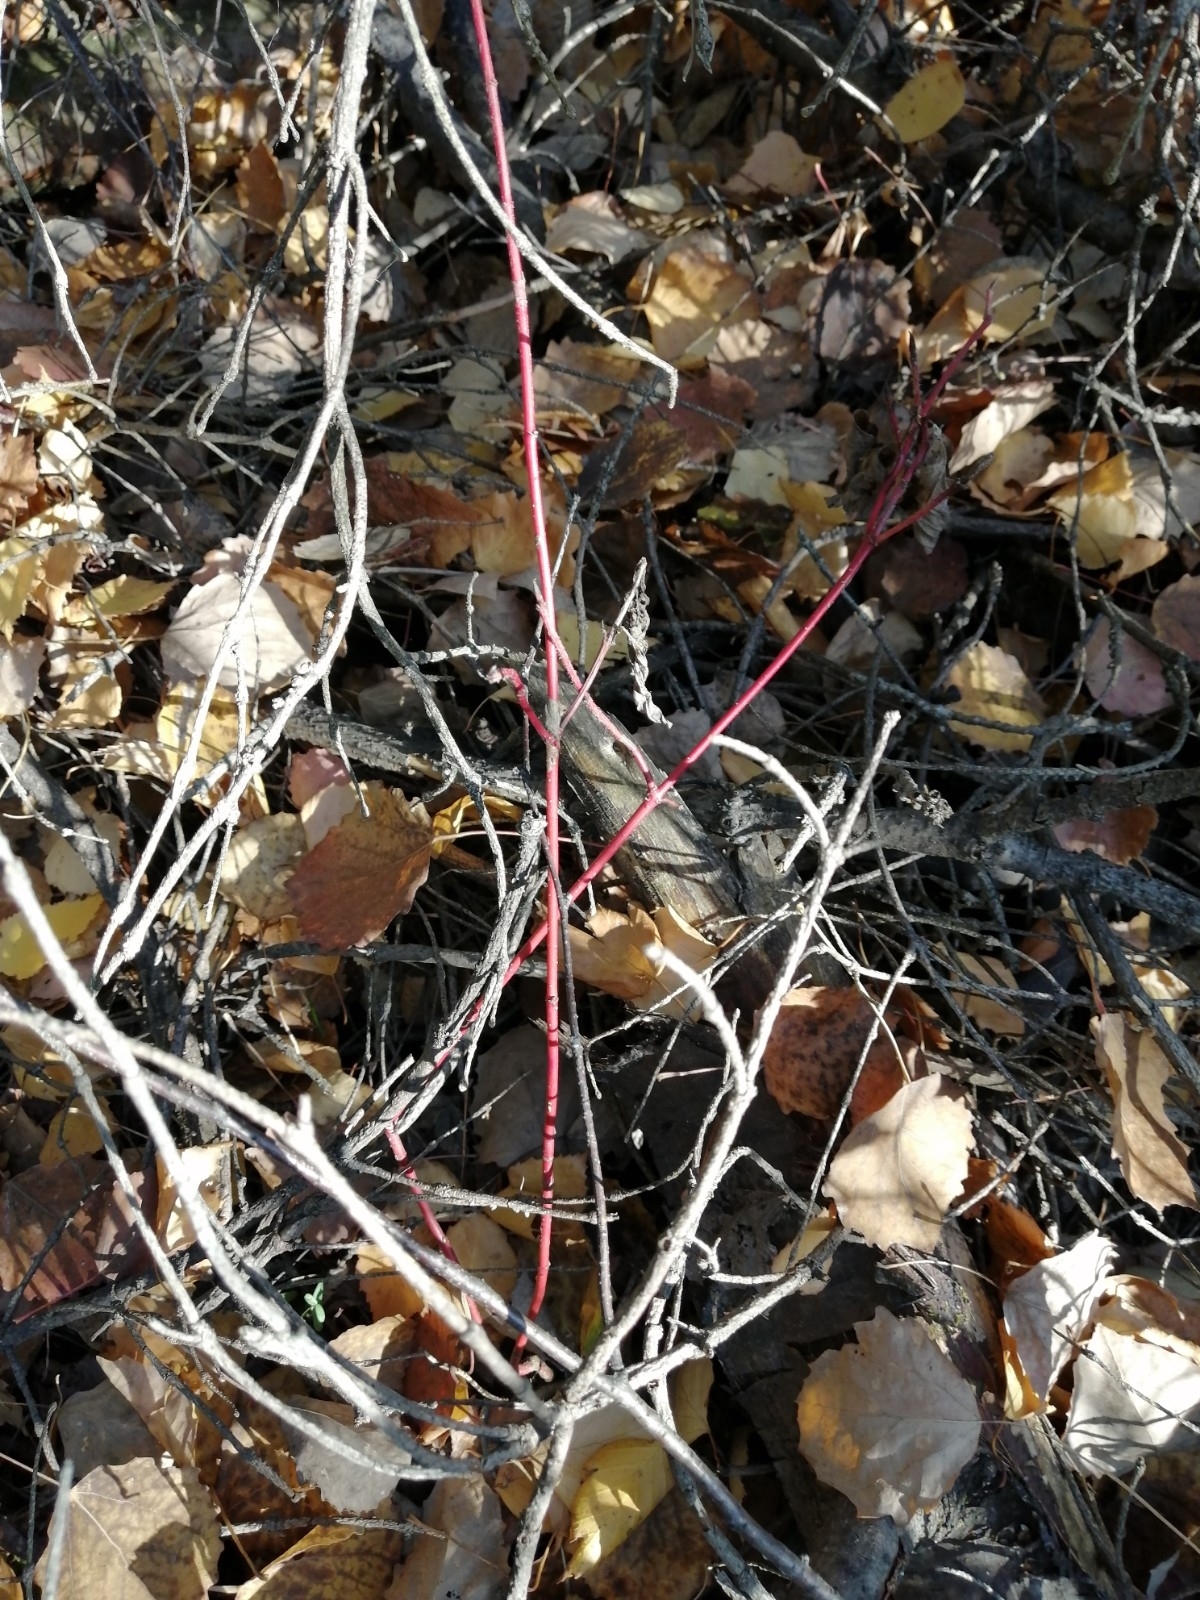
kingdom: Plantae
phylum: Tracheophyta
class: Magnoliopsida
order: Cornales
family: Cornaceae
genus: Cornus
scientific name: Cornus alba
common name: White dogwood
